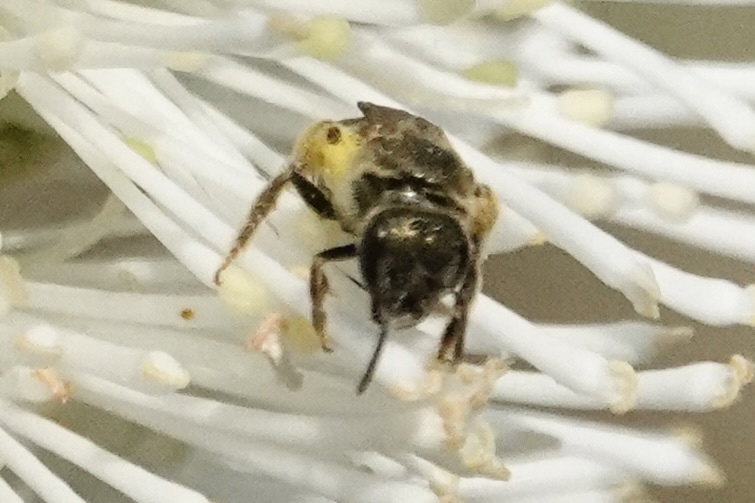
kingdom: Animalia
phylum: Arthropoda
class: Insecta
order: Hymenoptera
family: Halictidae
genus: Halictus
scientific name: Halictus confusus
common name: Southern bronze furrow bee
